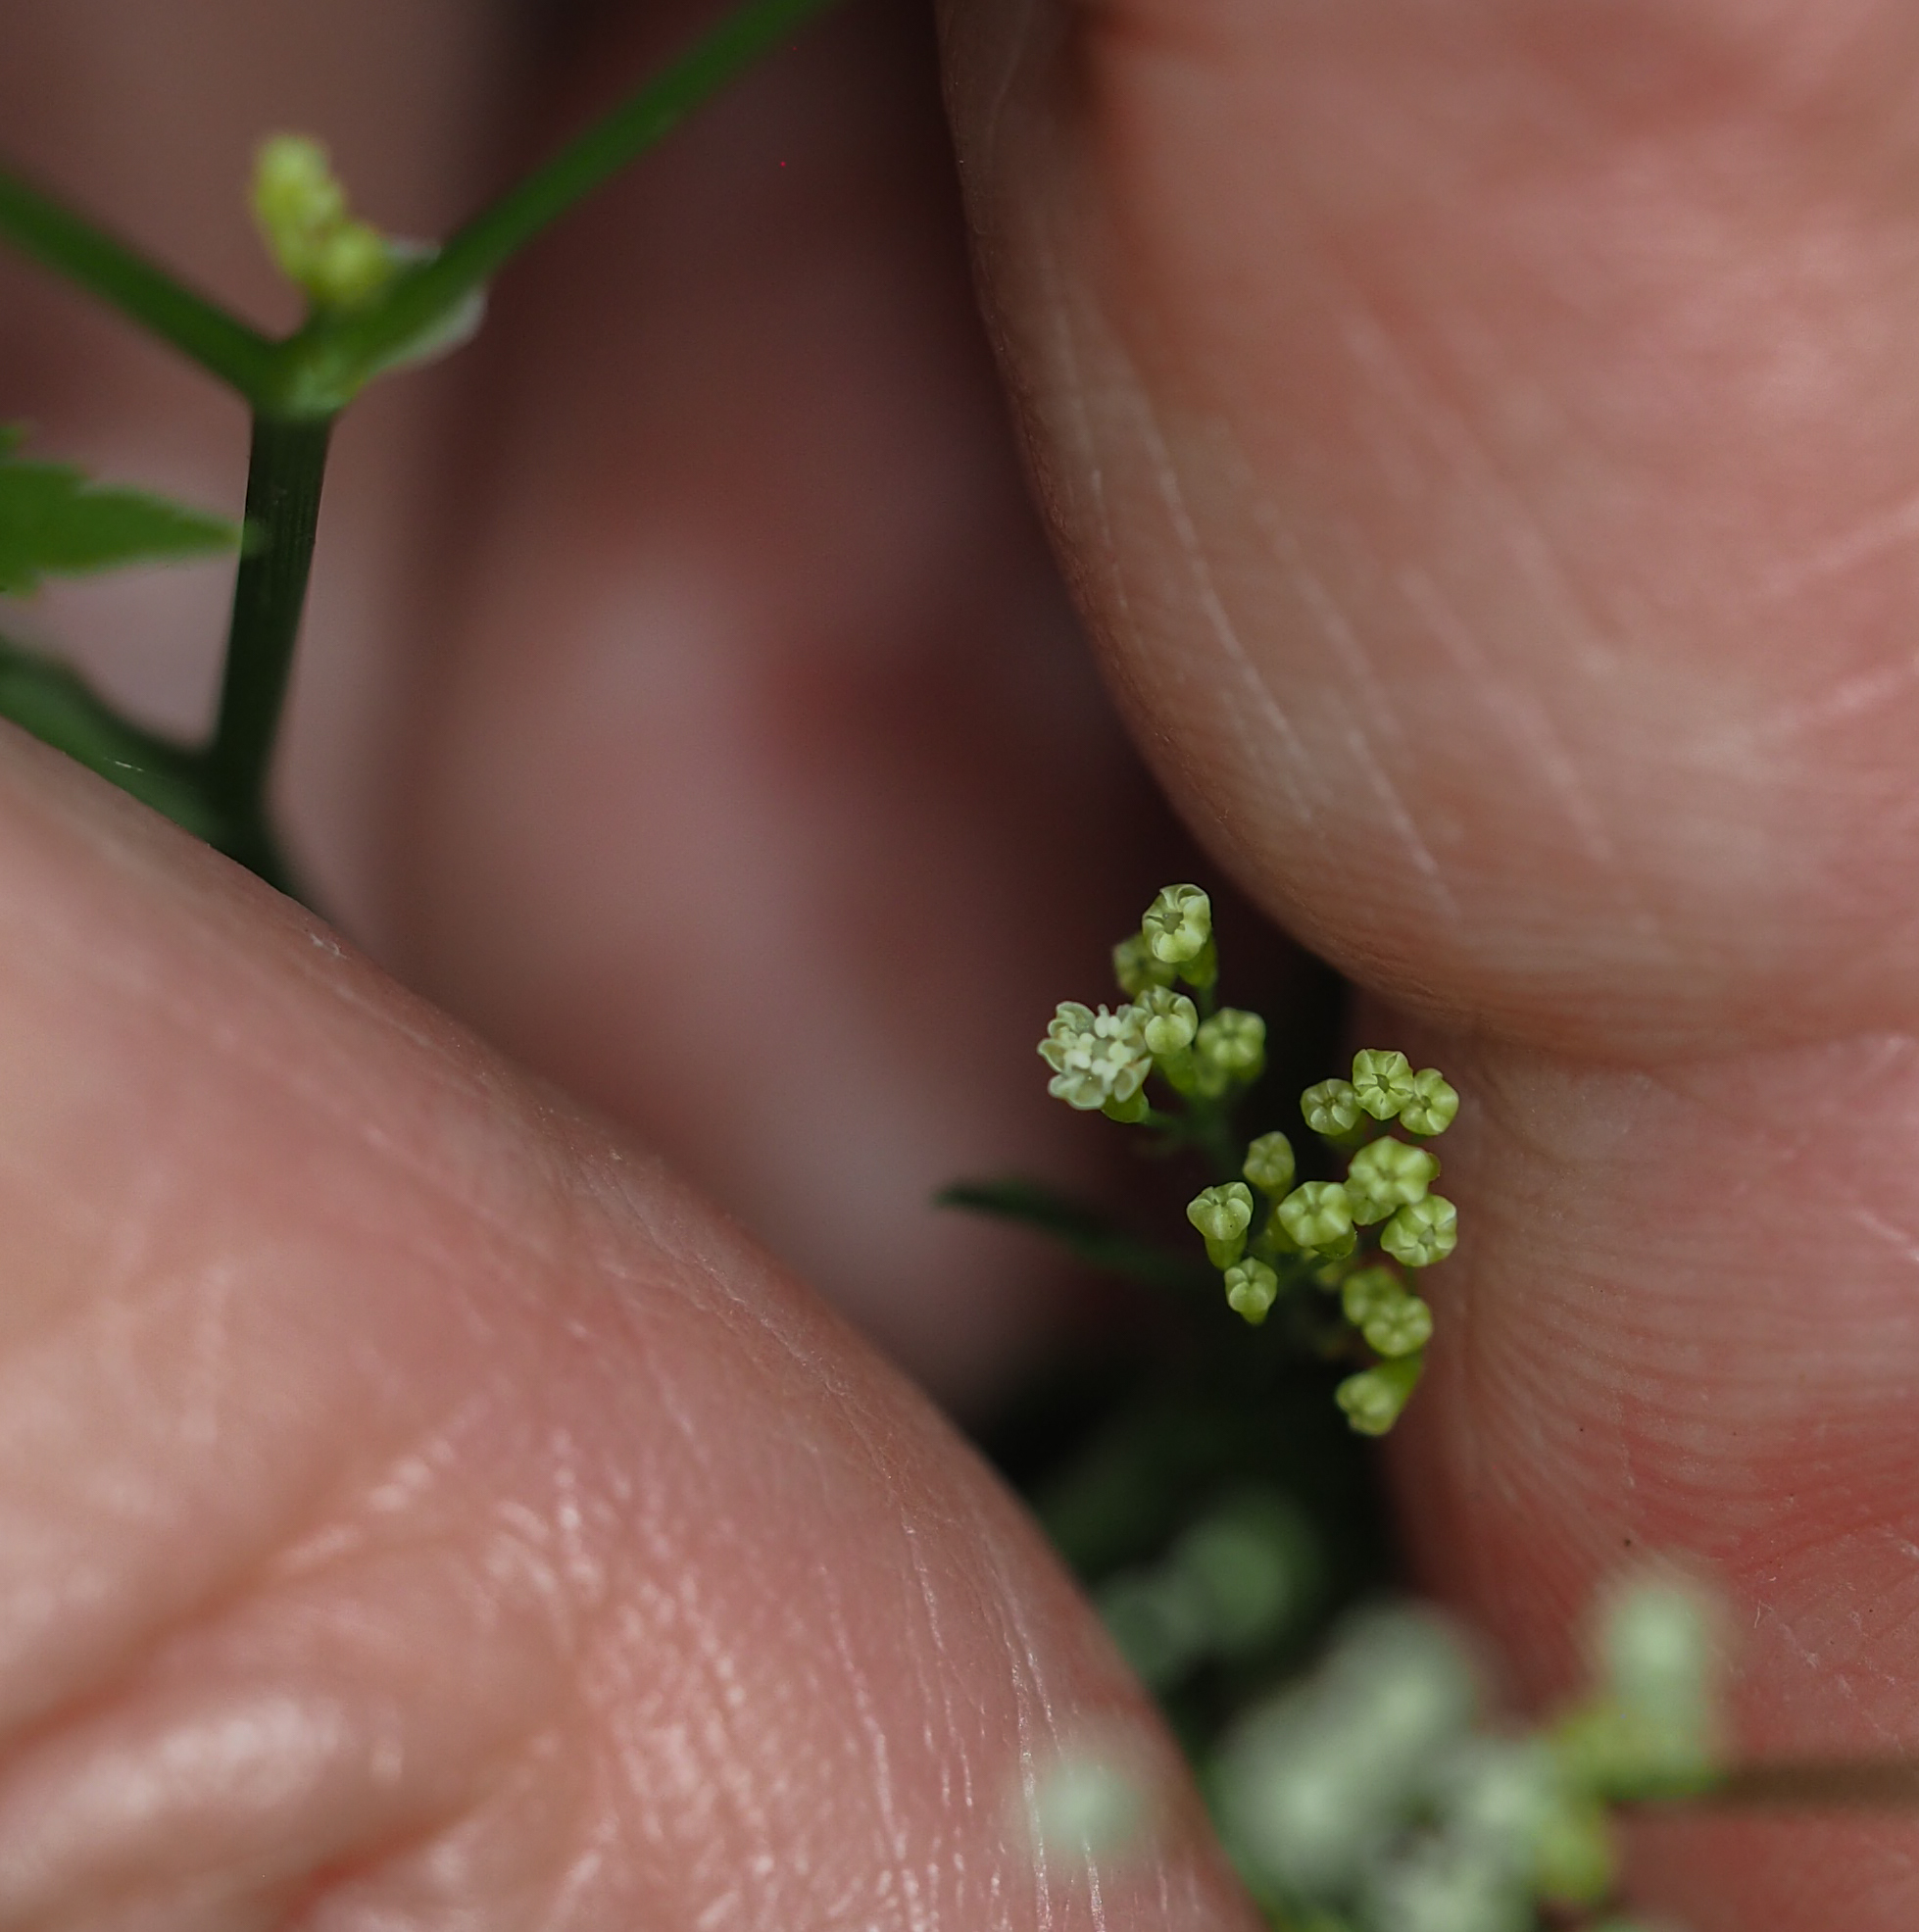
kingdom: Plantae
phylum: Tracheophyta
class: Magnoliopsida
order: Apiales
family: Apiaceae
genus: Cryptotaenia
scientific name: Cryptotaenia canadensis
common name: Honewort
